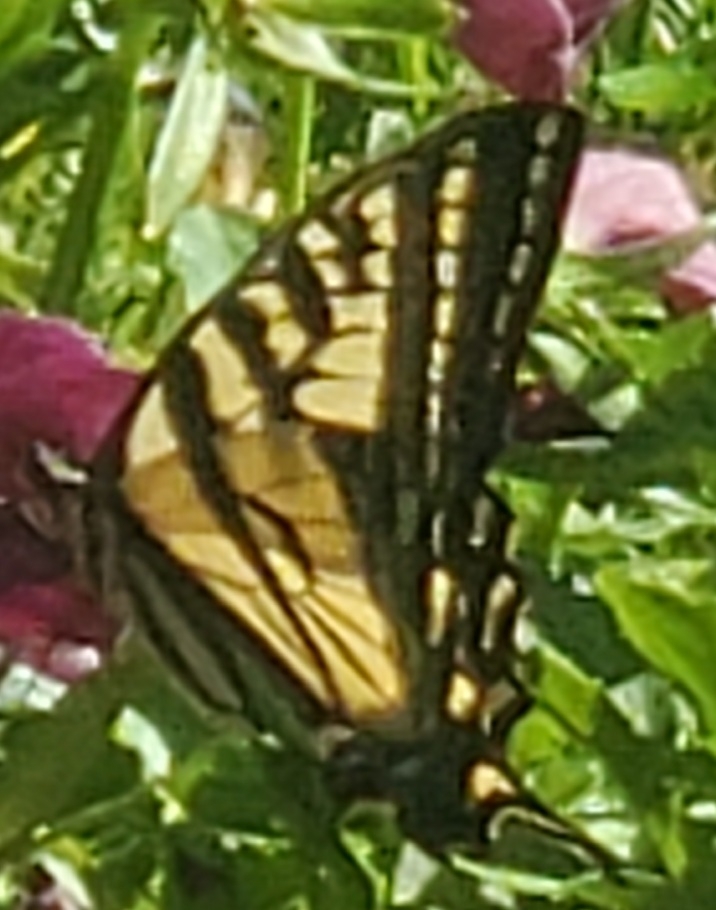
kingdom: Animalia
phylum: Arthropoda
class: Insecta
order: Lepidoptera
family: Papilionidae
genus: Papilio
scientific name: Papilio rutulus
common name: Western tiger swallowtail
